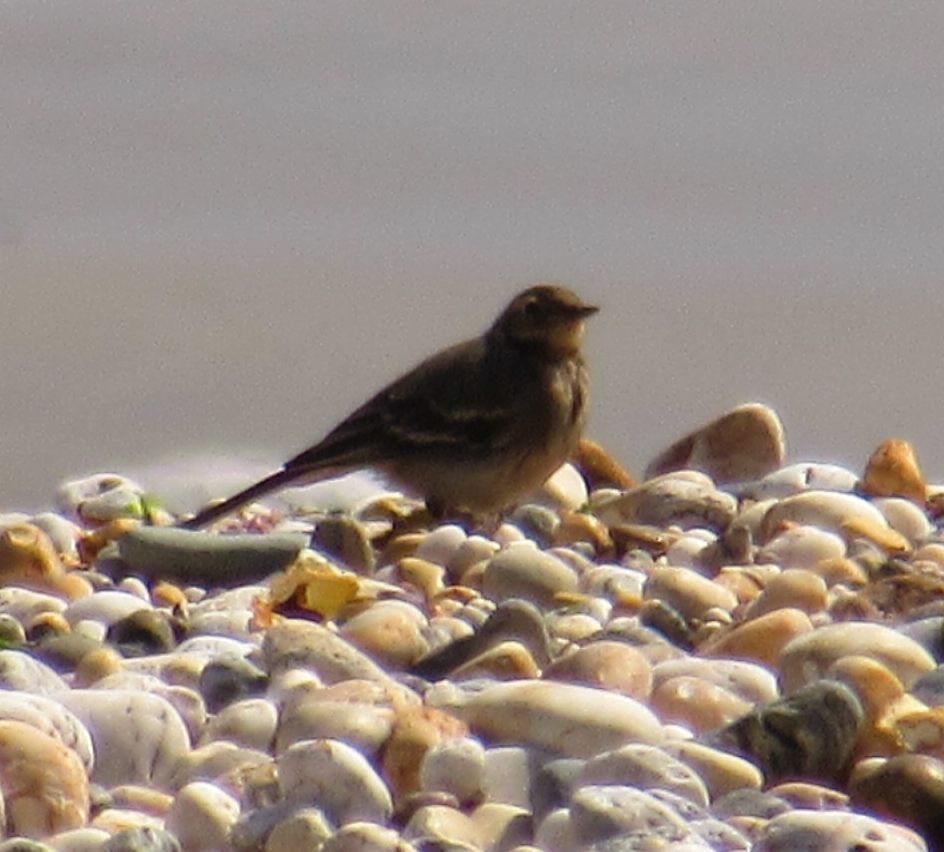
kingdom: Animalia
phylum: Chordata
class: Aves
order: Passeriformes
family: Motacillidae
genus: Anthus
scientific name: Anthus petrosus
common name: Eurasian rock pipit
